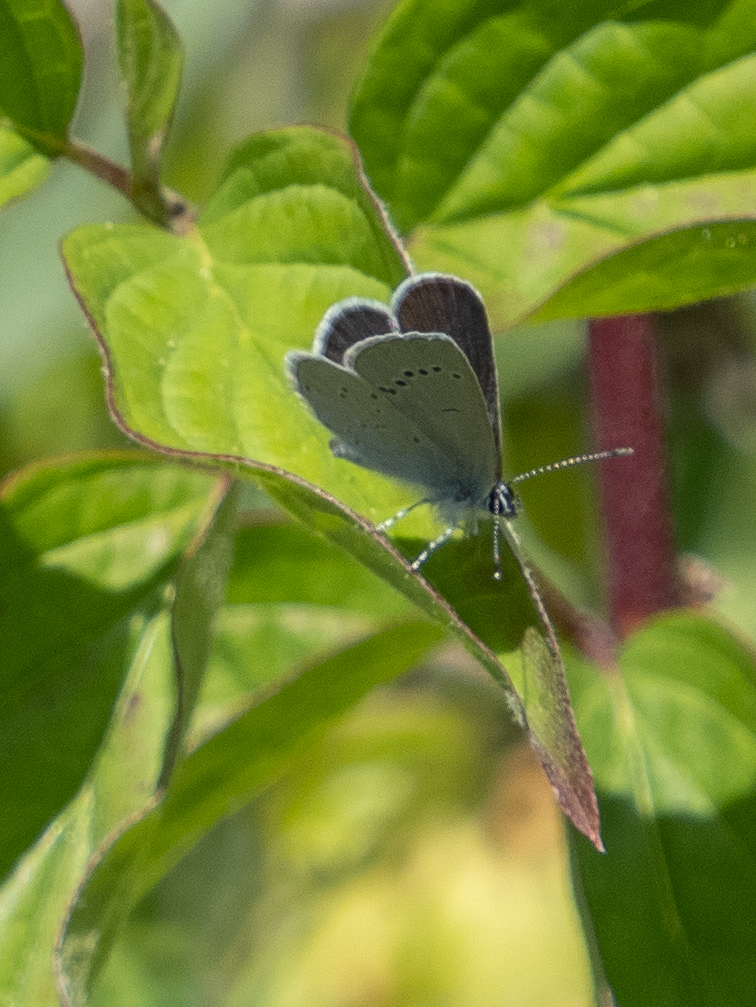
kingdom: Animalia
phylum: Arthropoda
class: Insecta
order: Lepidoptera
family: Lycaenidae
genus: Cupido
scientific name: Cupido minimus
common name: Small blue
